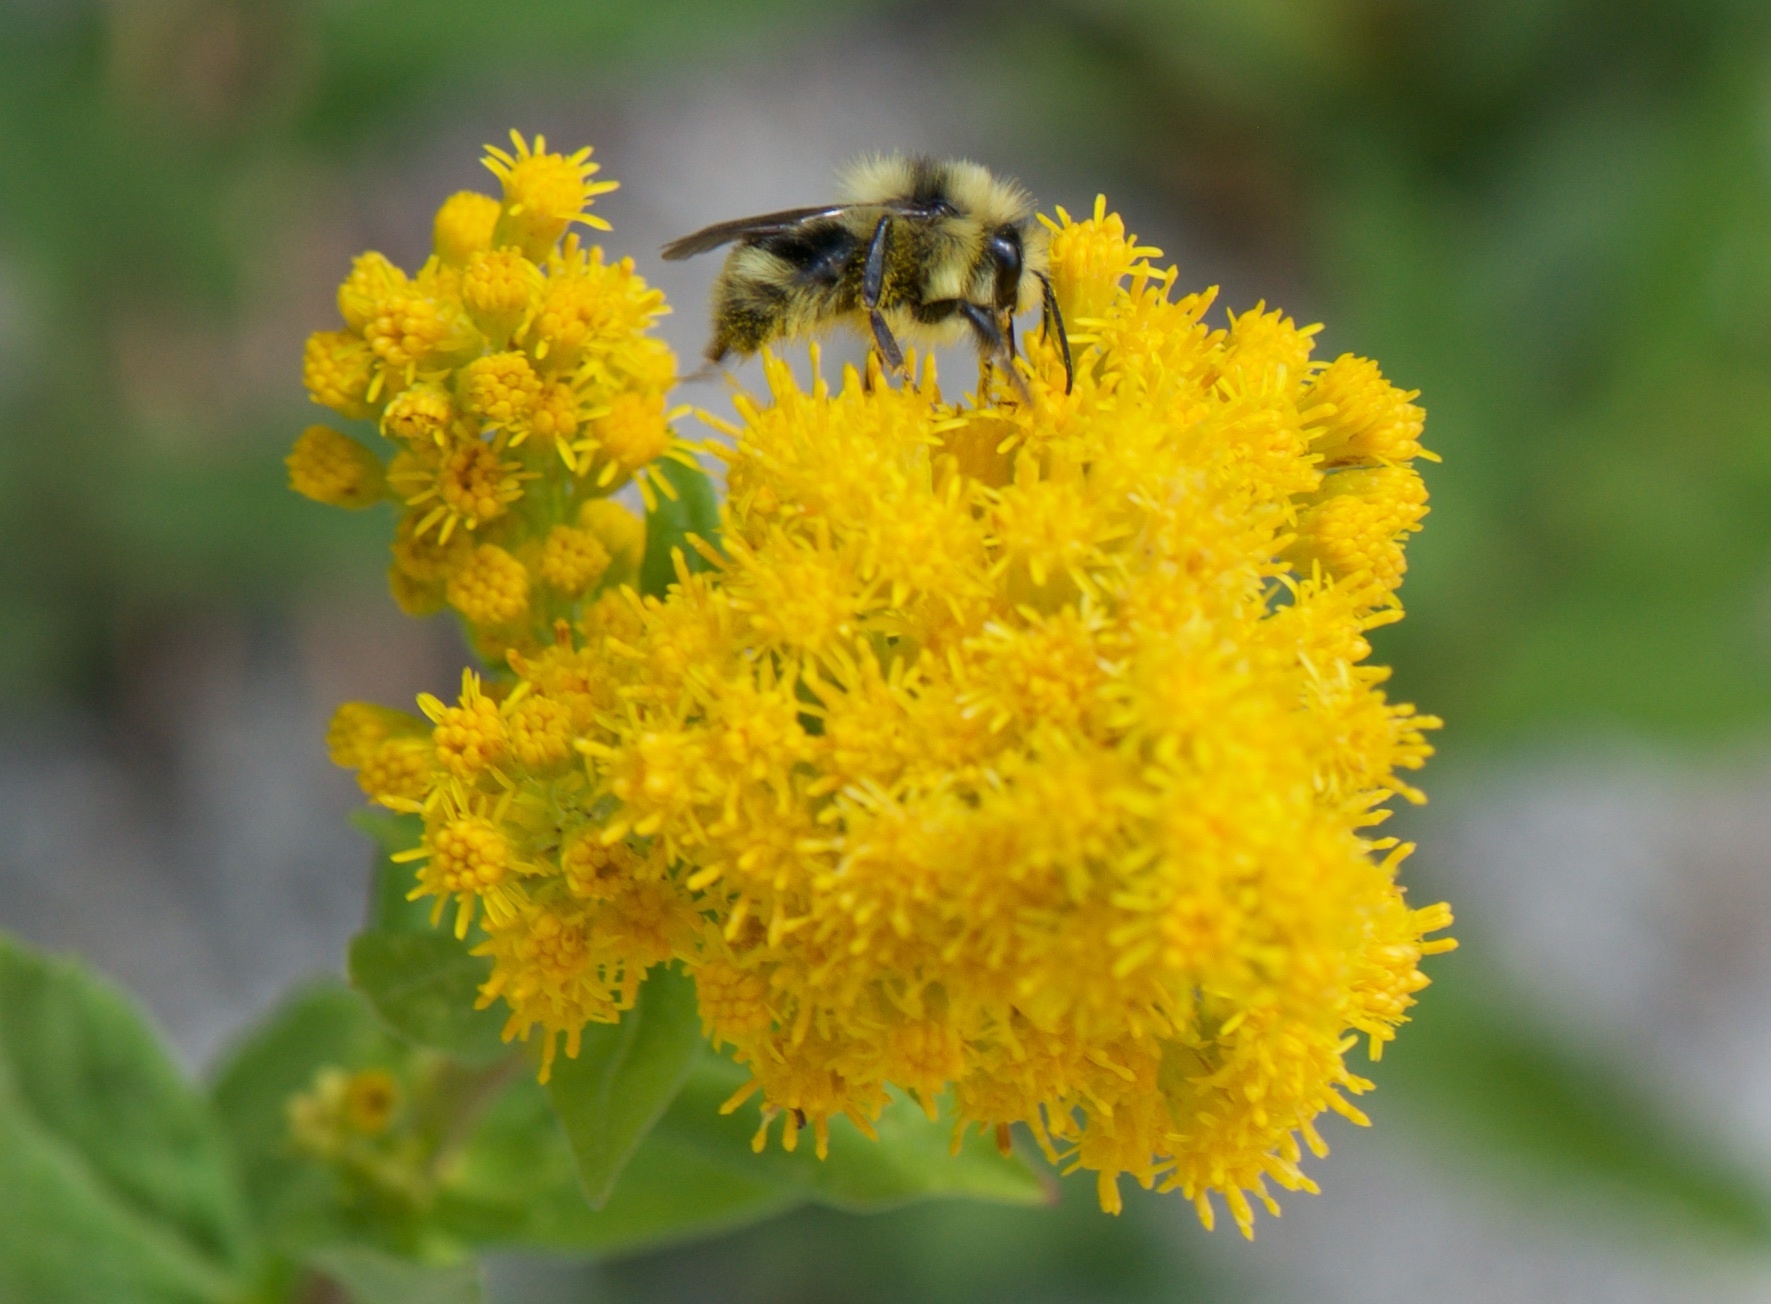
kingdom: Animalia
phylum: Arthropoda
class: Insecta
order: Hymenoptera
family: Apidae
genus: Bombus
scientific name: Bombus melanopygus
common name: Black tail bumble bee
